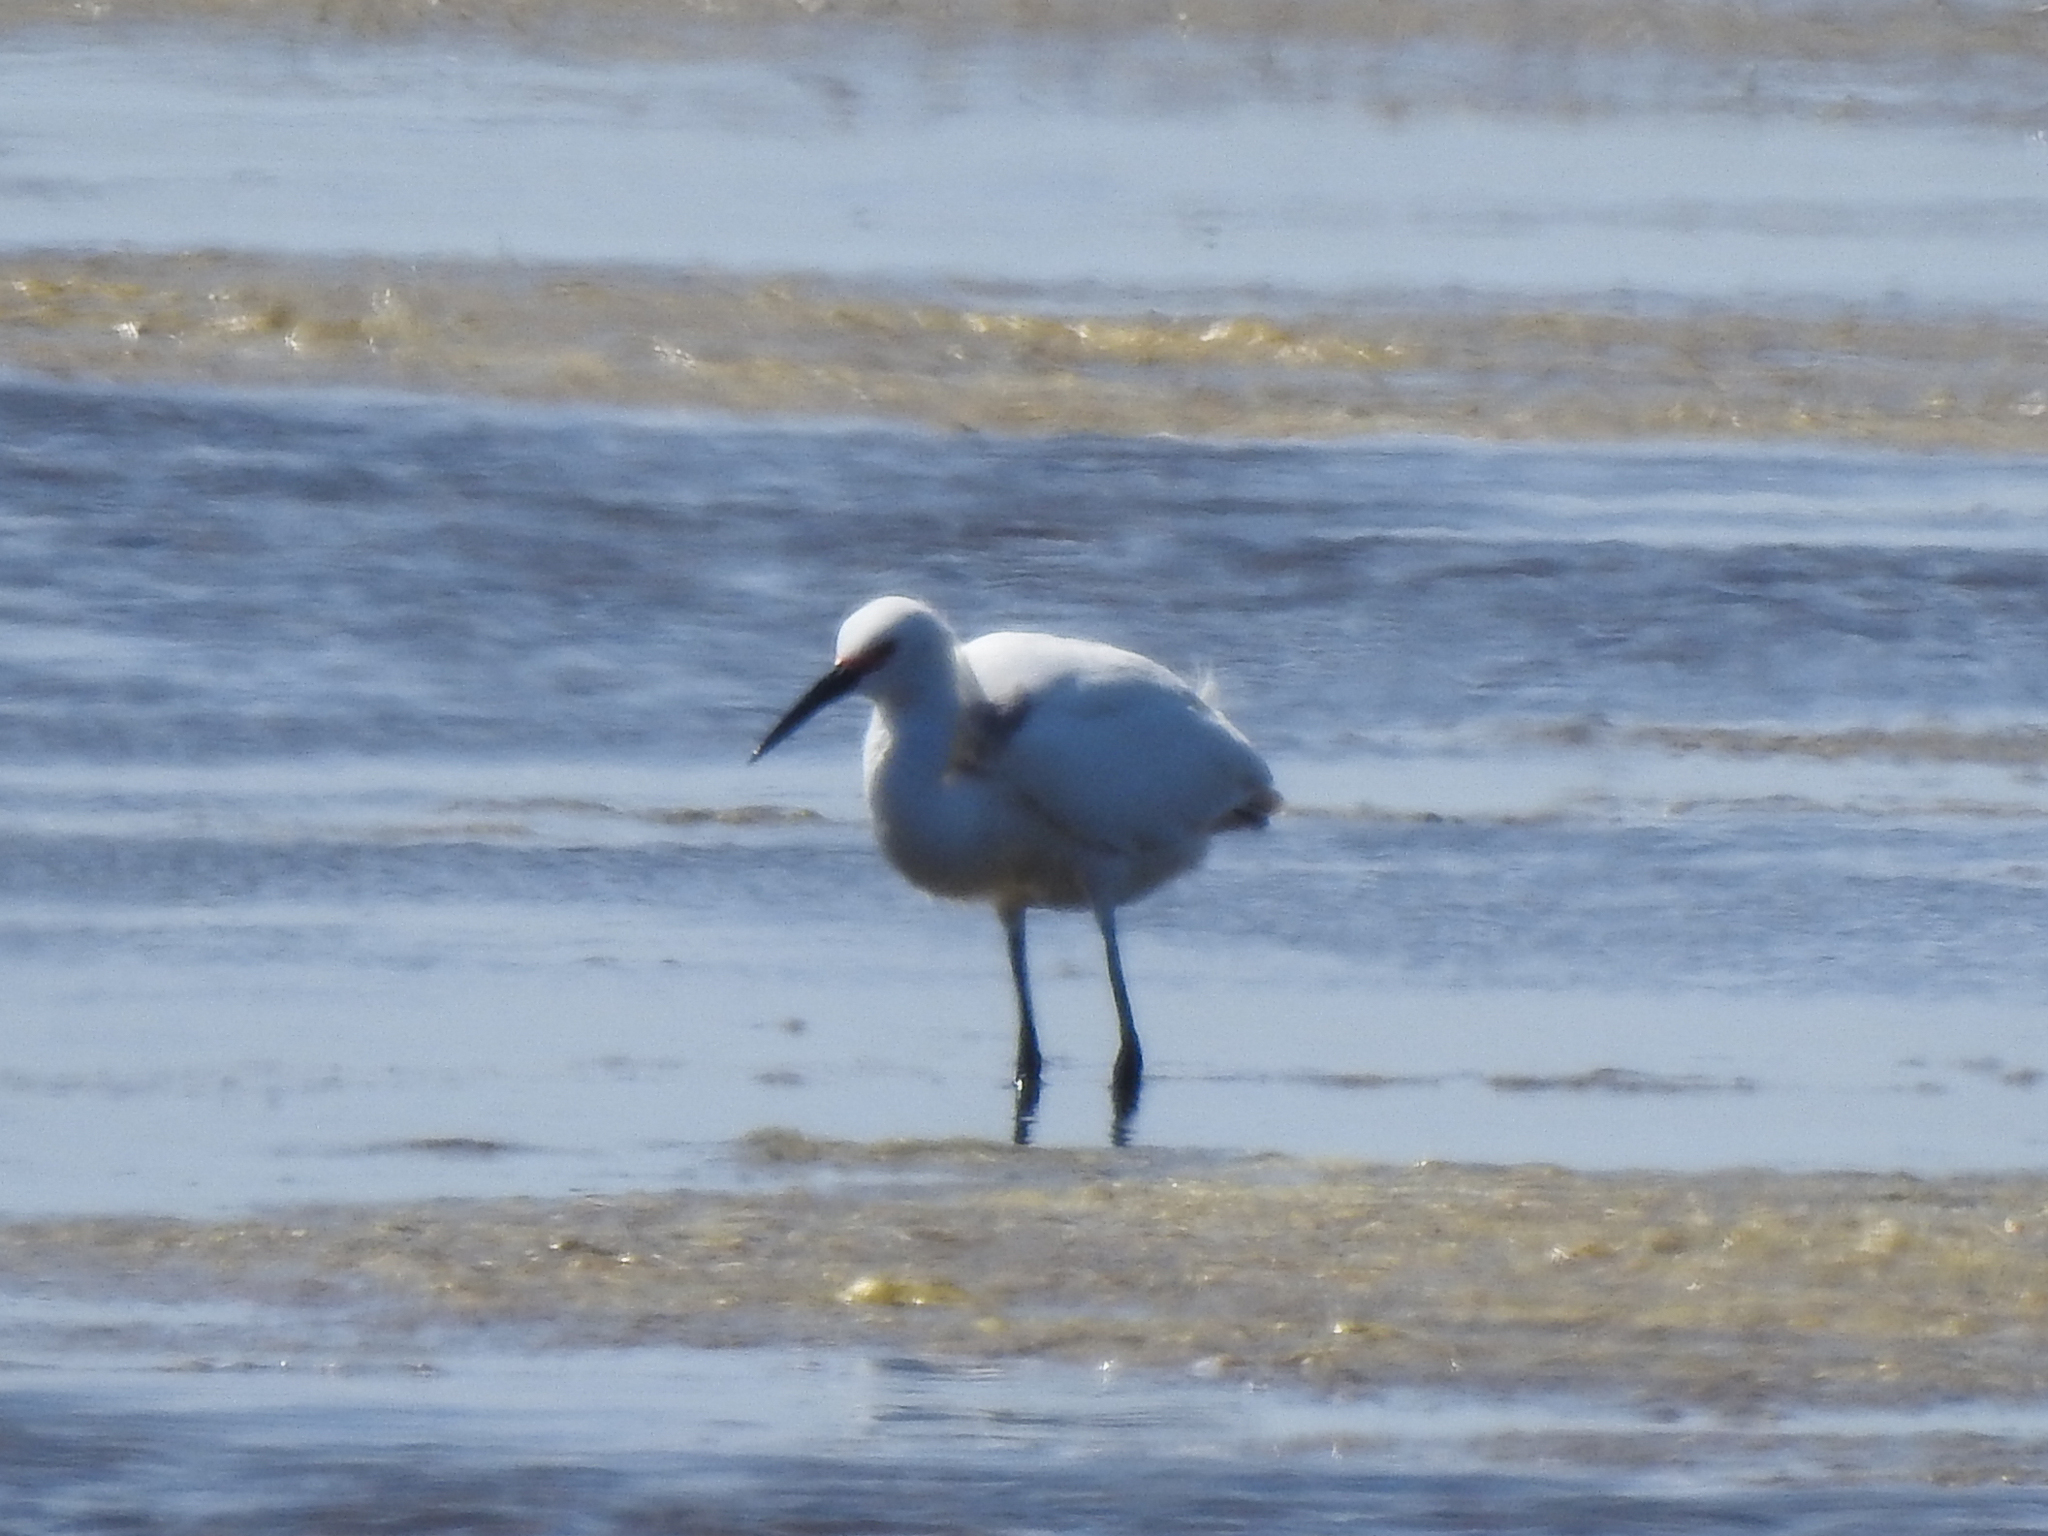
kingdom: Animalia
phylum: Chordata
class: Aves
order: Pelecaniformes
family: Ardeidae
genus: Egretta
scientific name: Egretta thula
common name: Snowy egret
